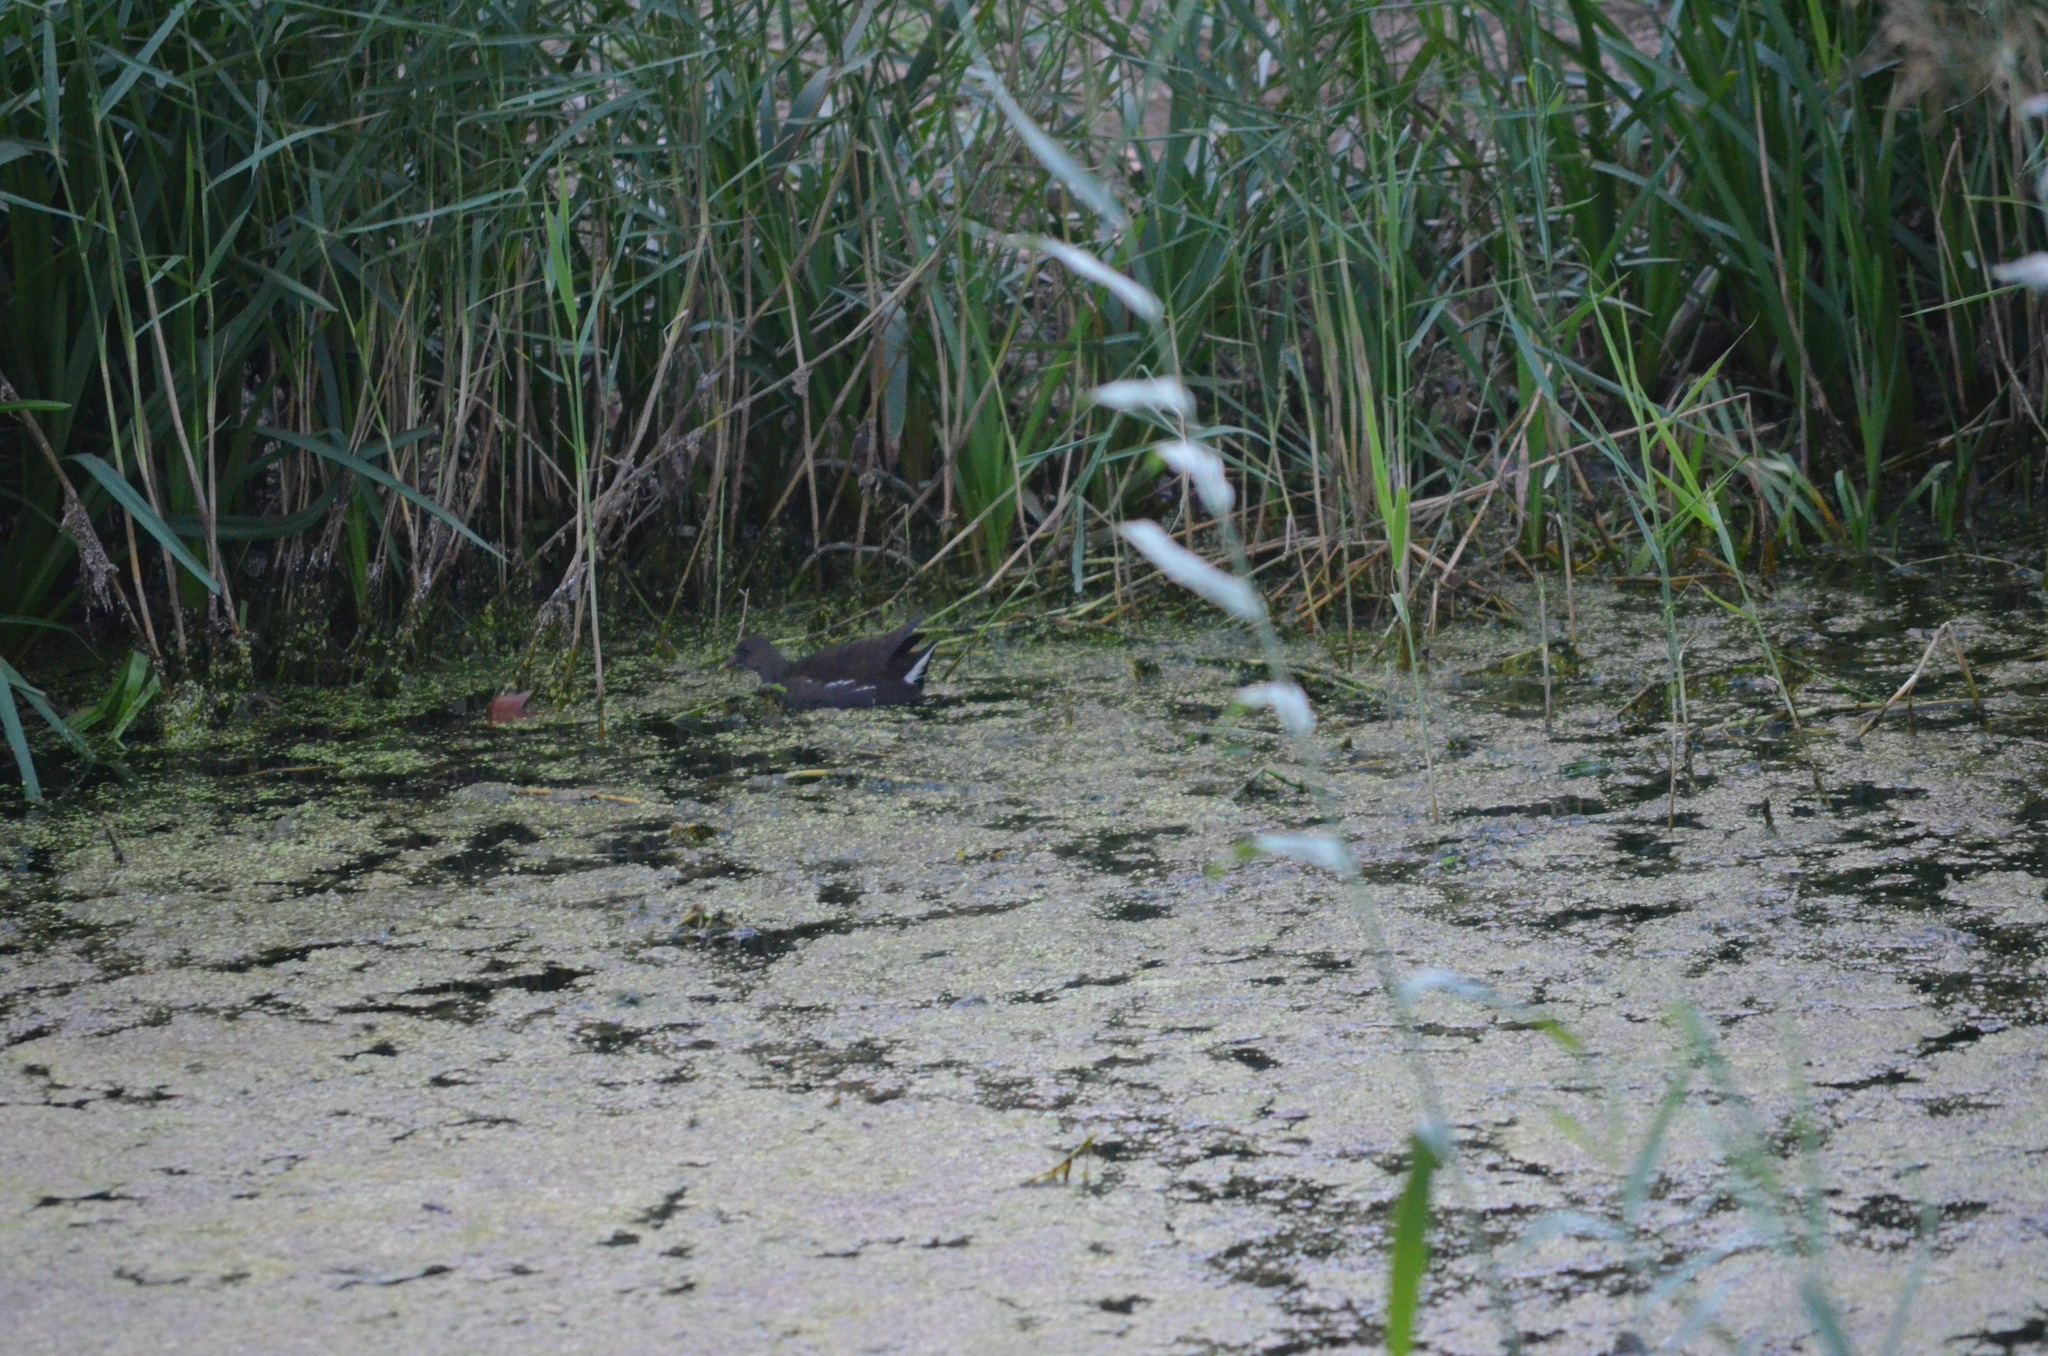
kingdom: Animalia
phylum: Chordata
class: Aves
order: Gruiformes
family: Rallidae
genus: Gallinula
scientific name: Gallinula chloropus
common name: Common moorhen
